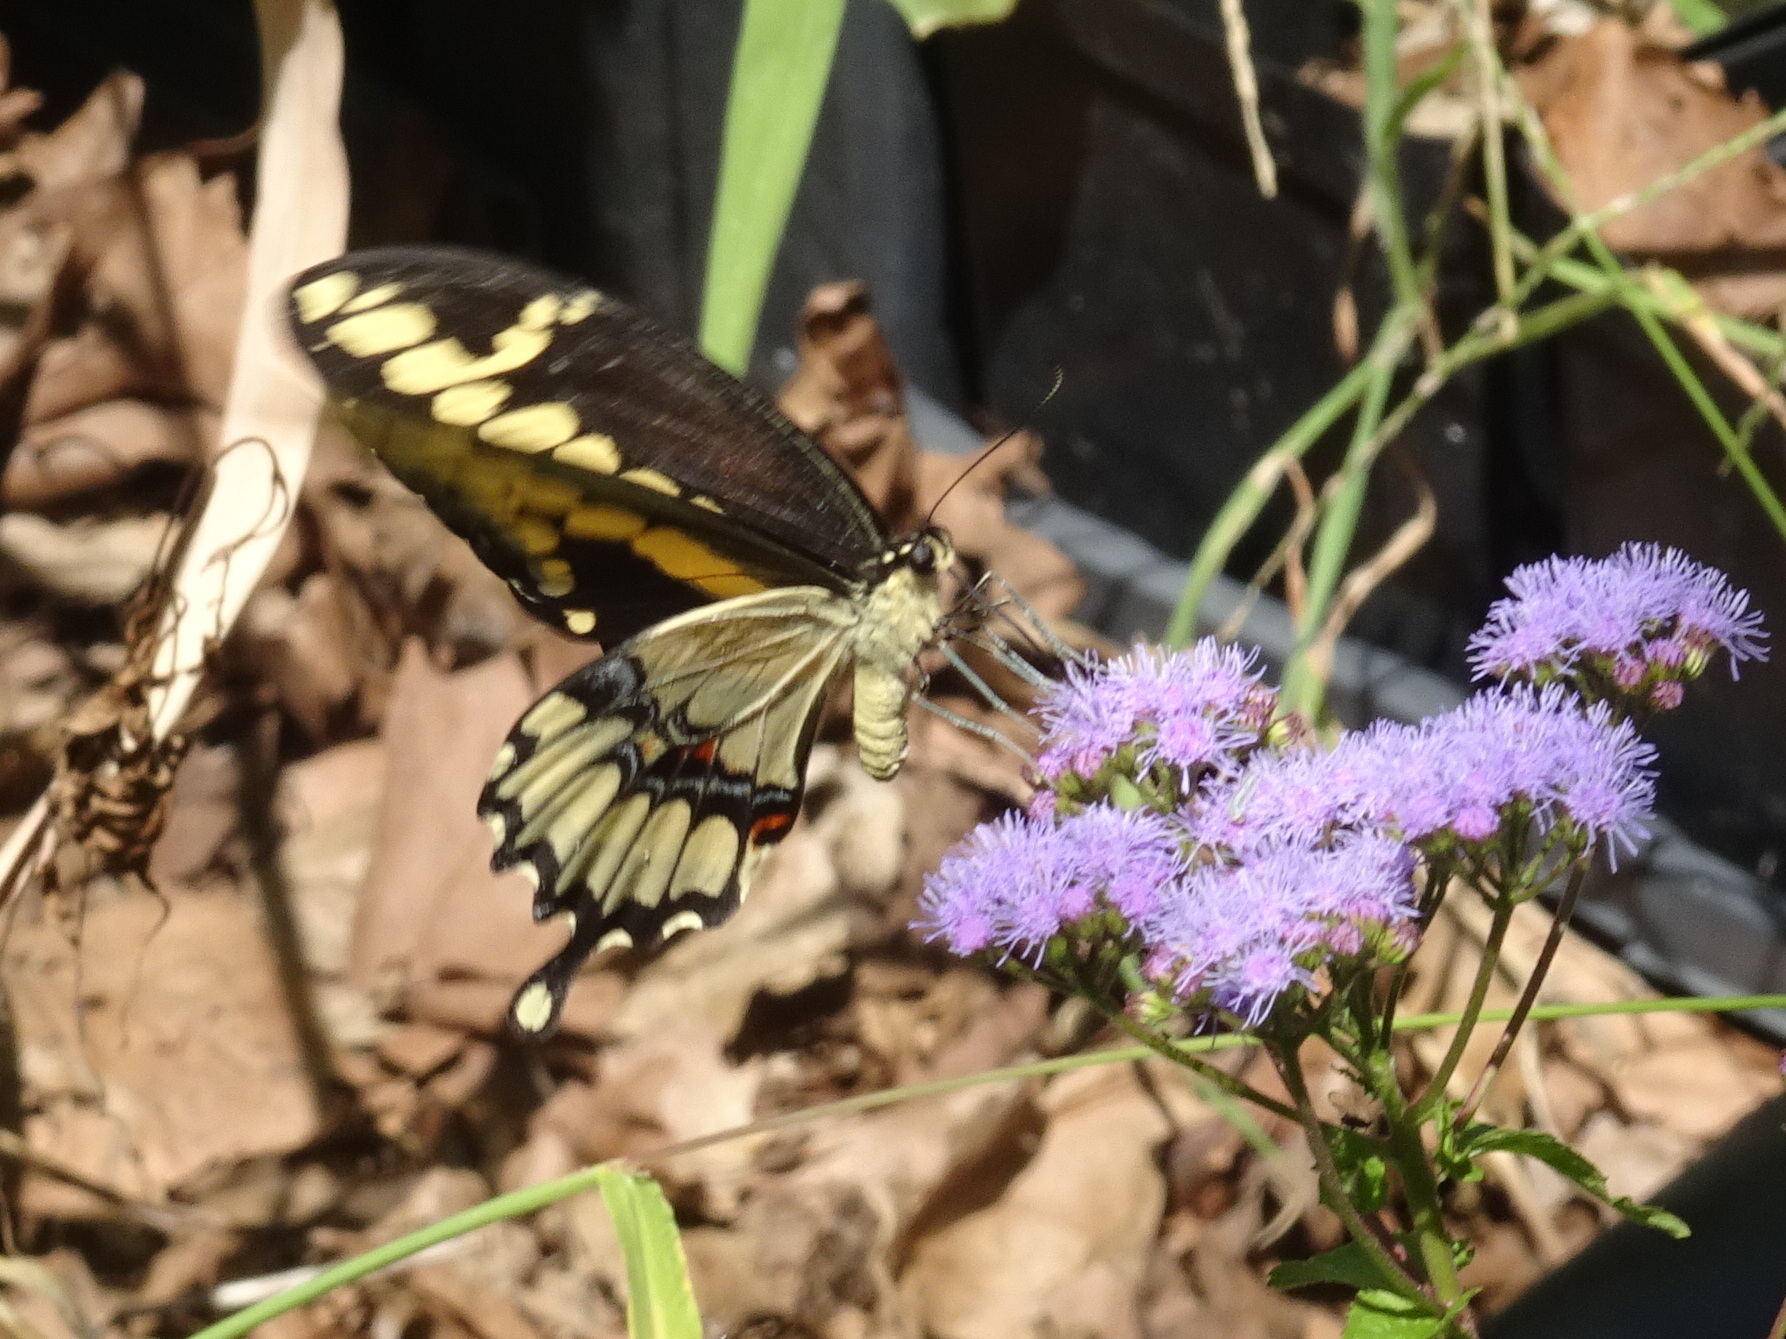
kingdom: Animalia
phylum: Arthropoda
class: Insecta
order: Lepidoptera
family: Papilionidae
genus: Papilio
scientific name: Papilio cresphontes
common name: Giant swallowtail
